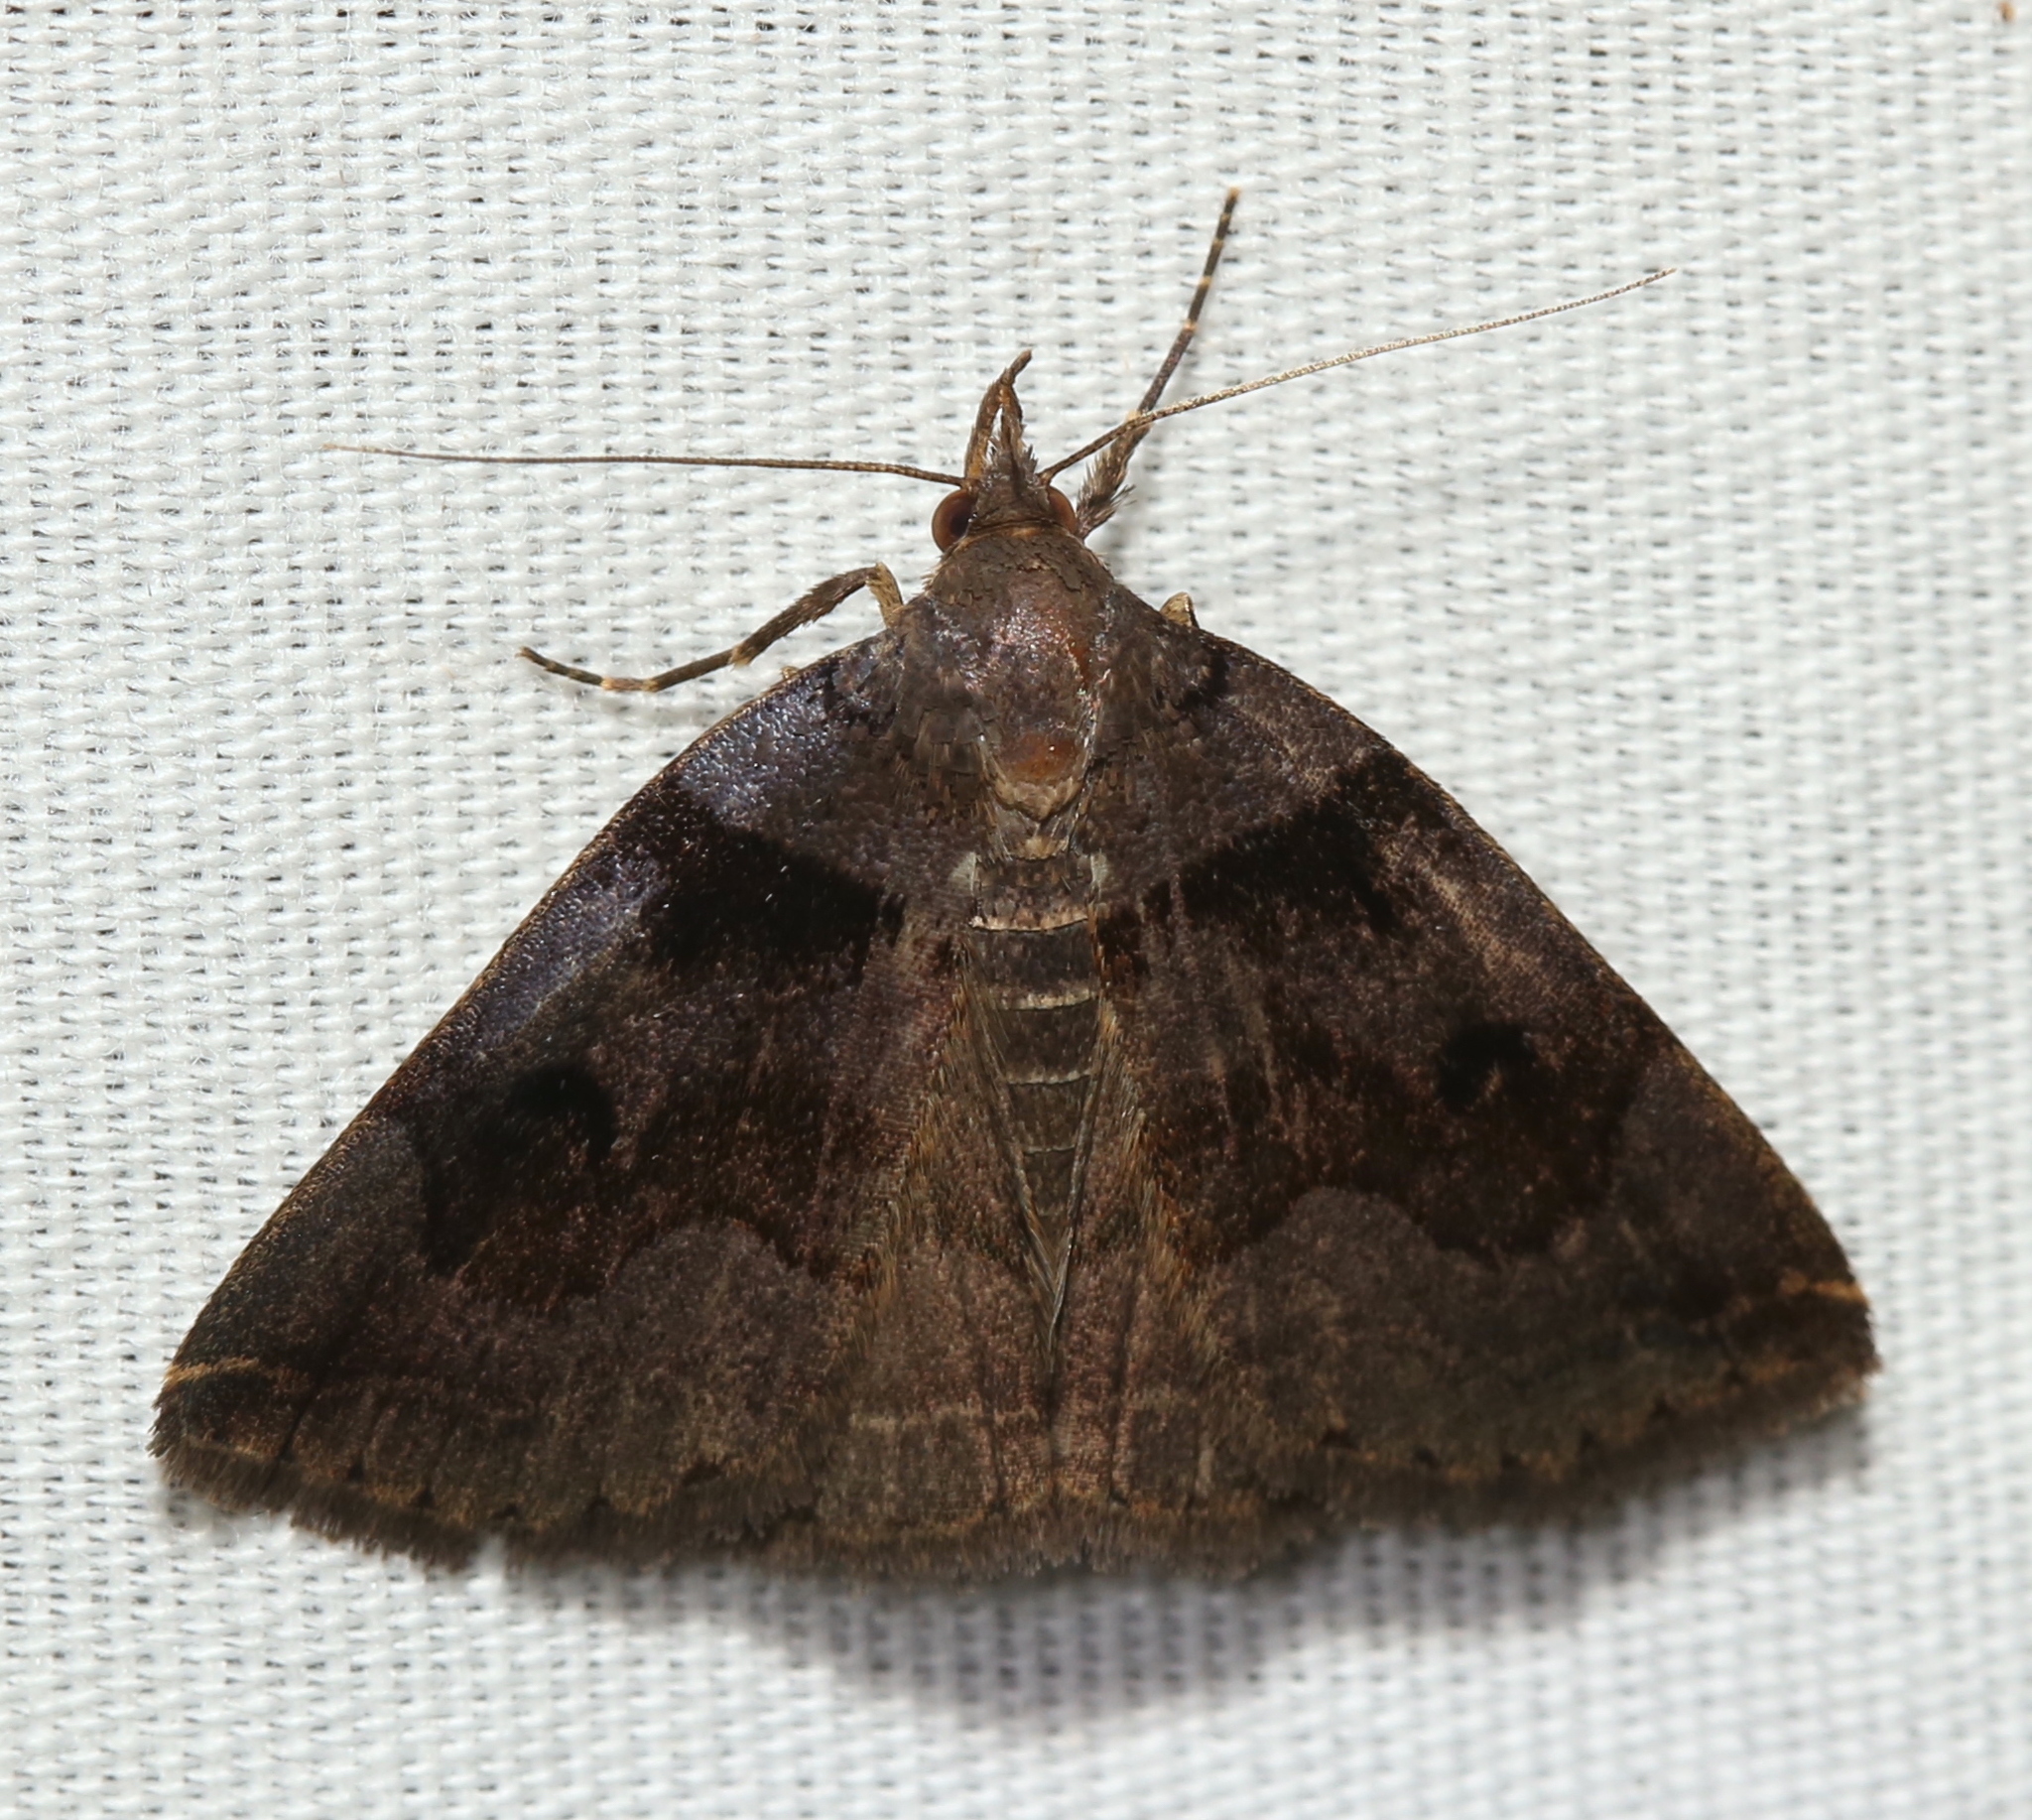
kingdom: Animalia
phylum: Arthropoda
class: Insecta
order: Lepidoptera
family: Erebidae
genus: Zanclognatha
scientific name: Zanclognatha laevigata
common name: Variable fan-foot
